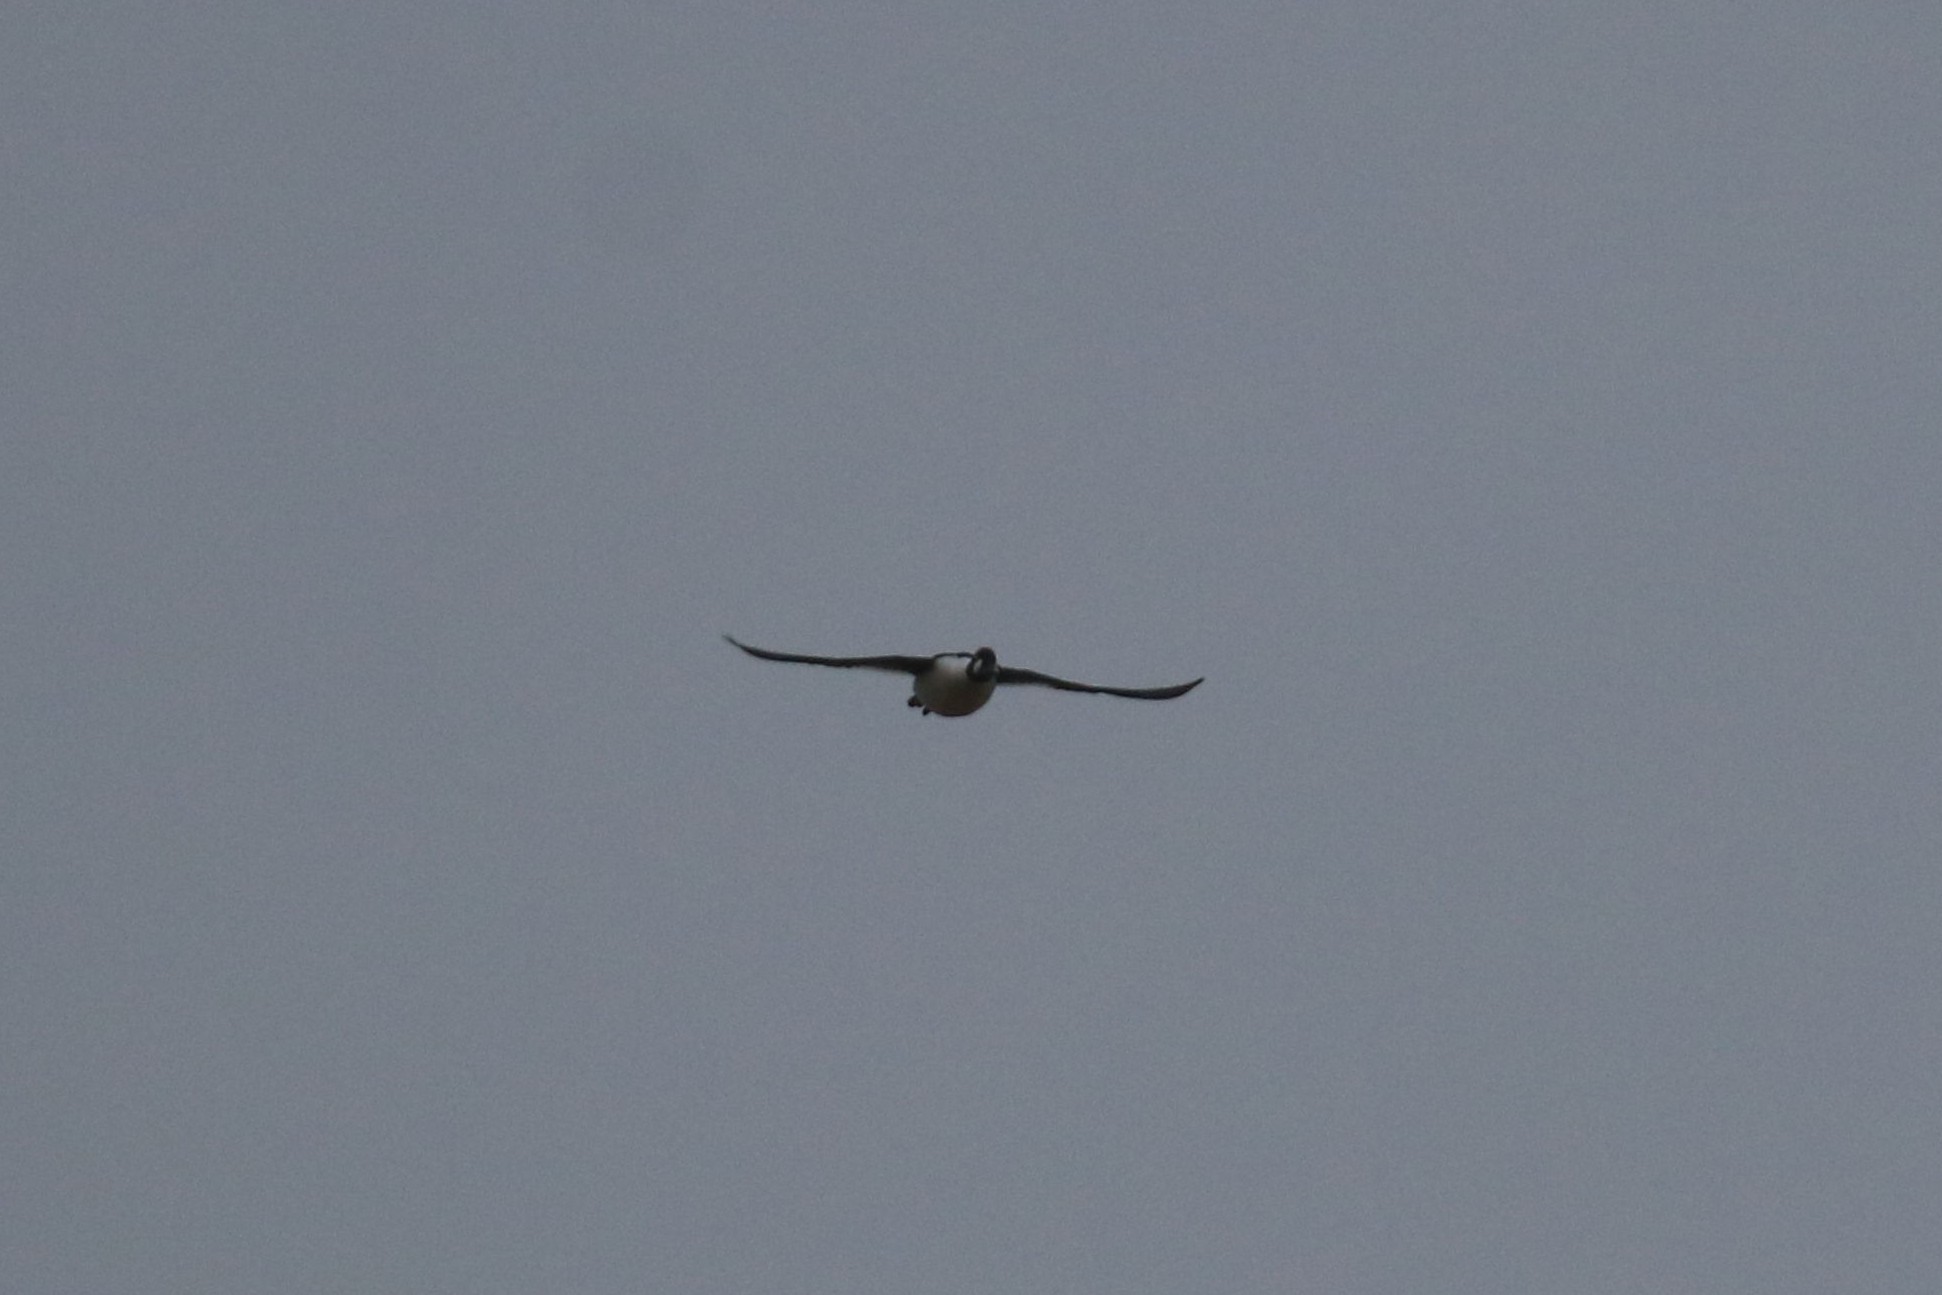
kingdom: Animalia
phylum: Chordata
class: Aves
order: Anseriformes
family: Anatidae
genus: Bucephala
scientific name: Bucephala clangula
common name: Common goldeneye
